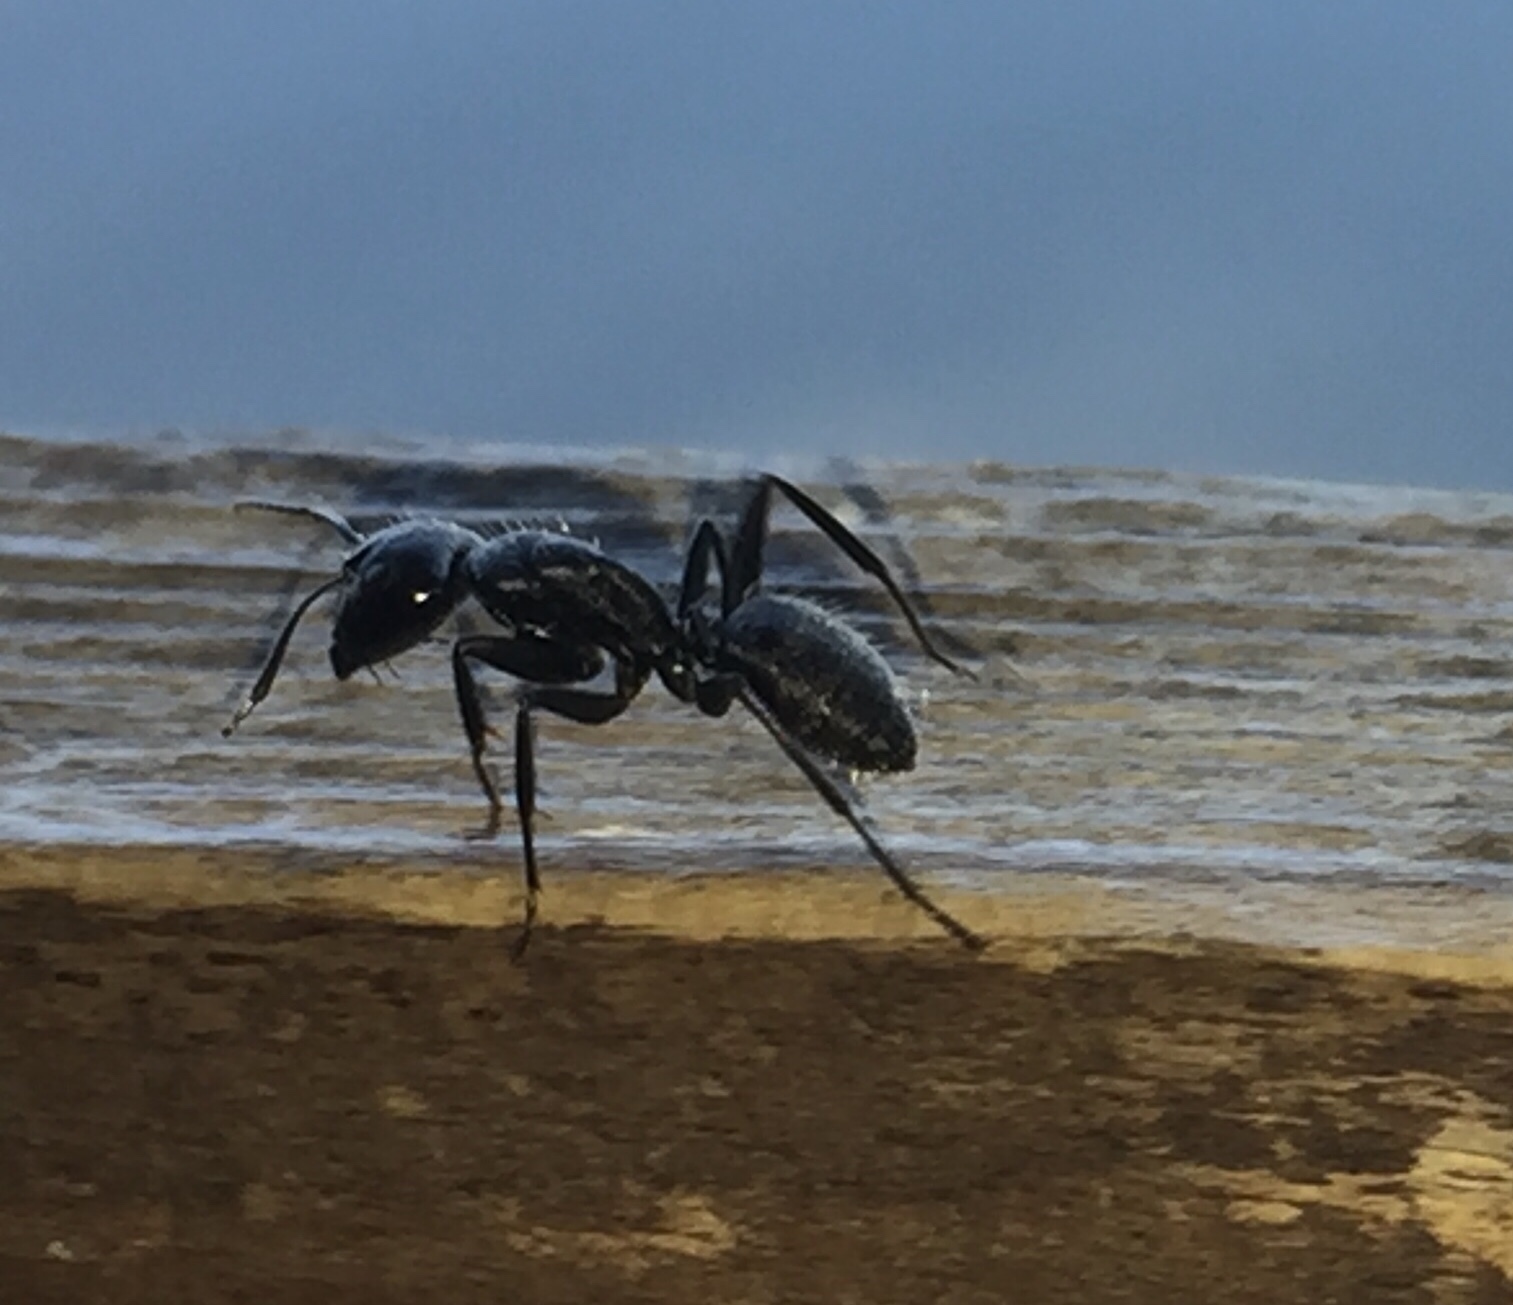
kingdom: Animalia
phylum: Arthropoda
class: Insecta
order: Hymenoptera
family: Formicidae
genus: Camponotus
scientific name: Camponotus vagus
